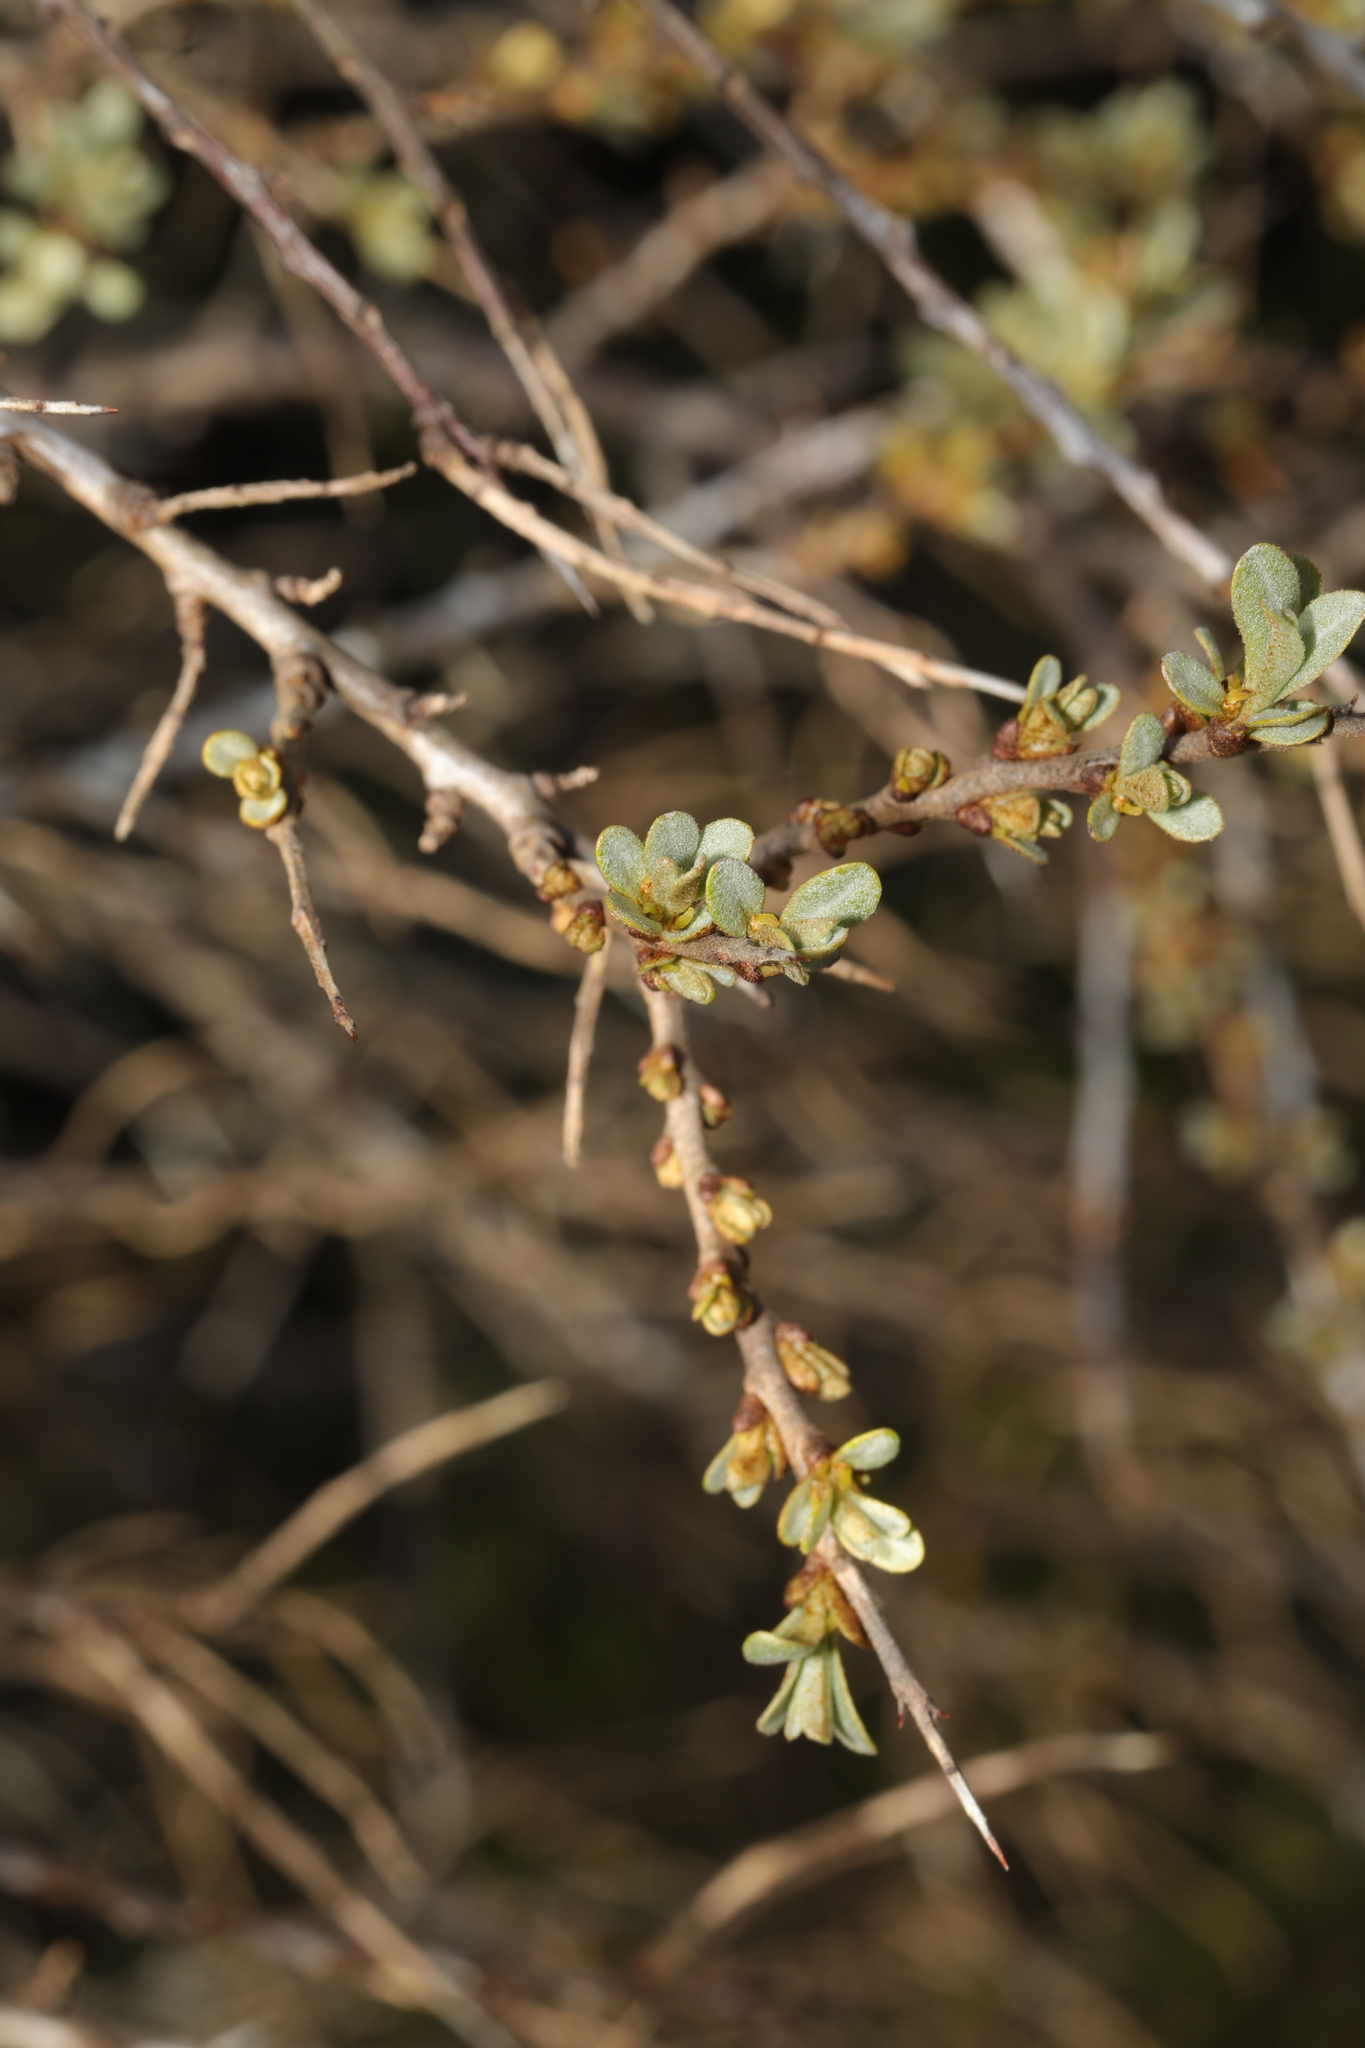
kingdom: Plantae
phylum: Tracheophyta
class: Magnoliopsida
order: Rosales
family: Elaeagnaceae
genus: Hippophae
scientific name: Hippophae rhamnoides
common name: Sea-buckthorn
